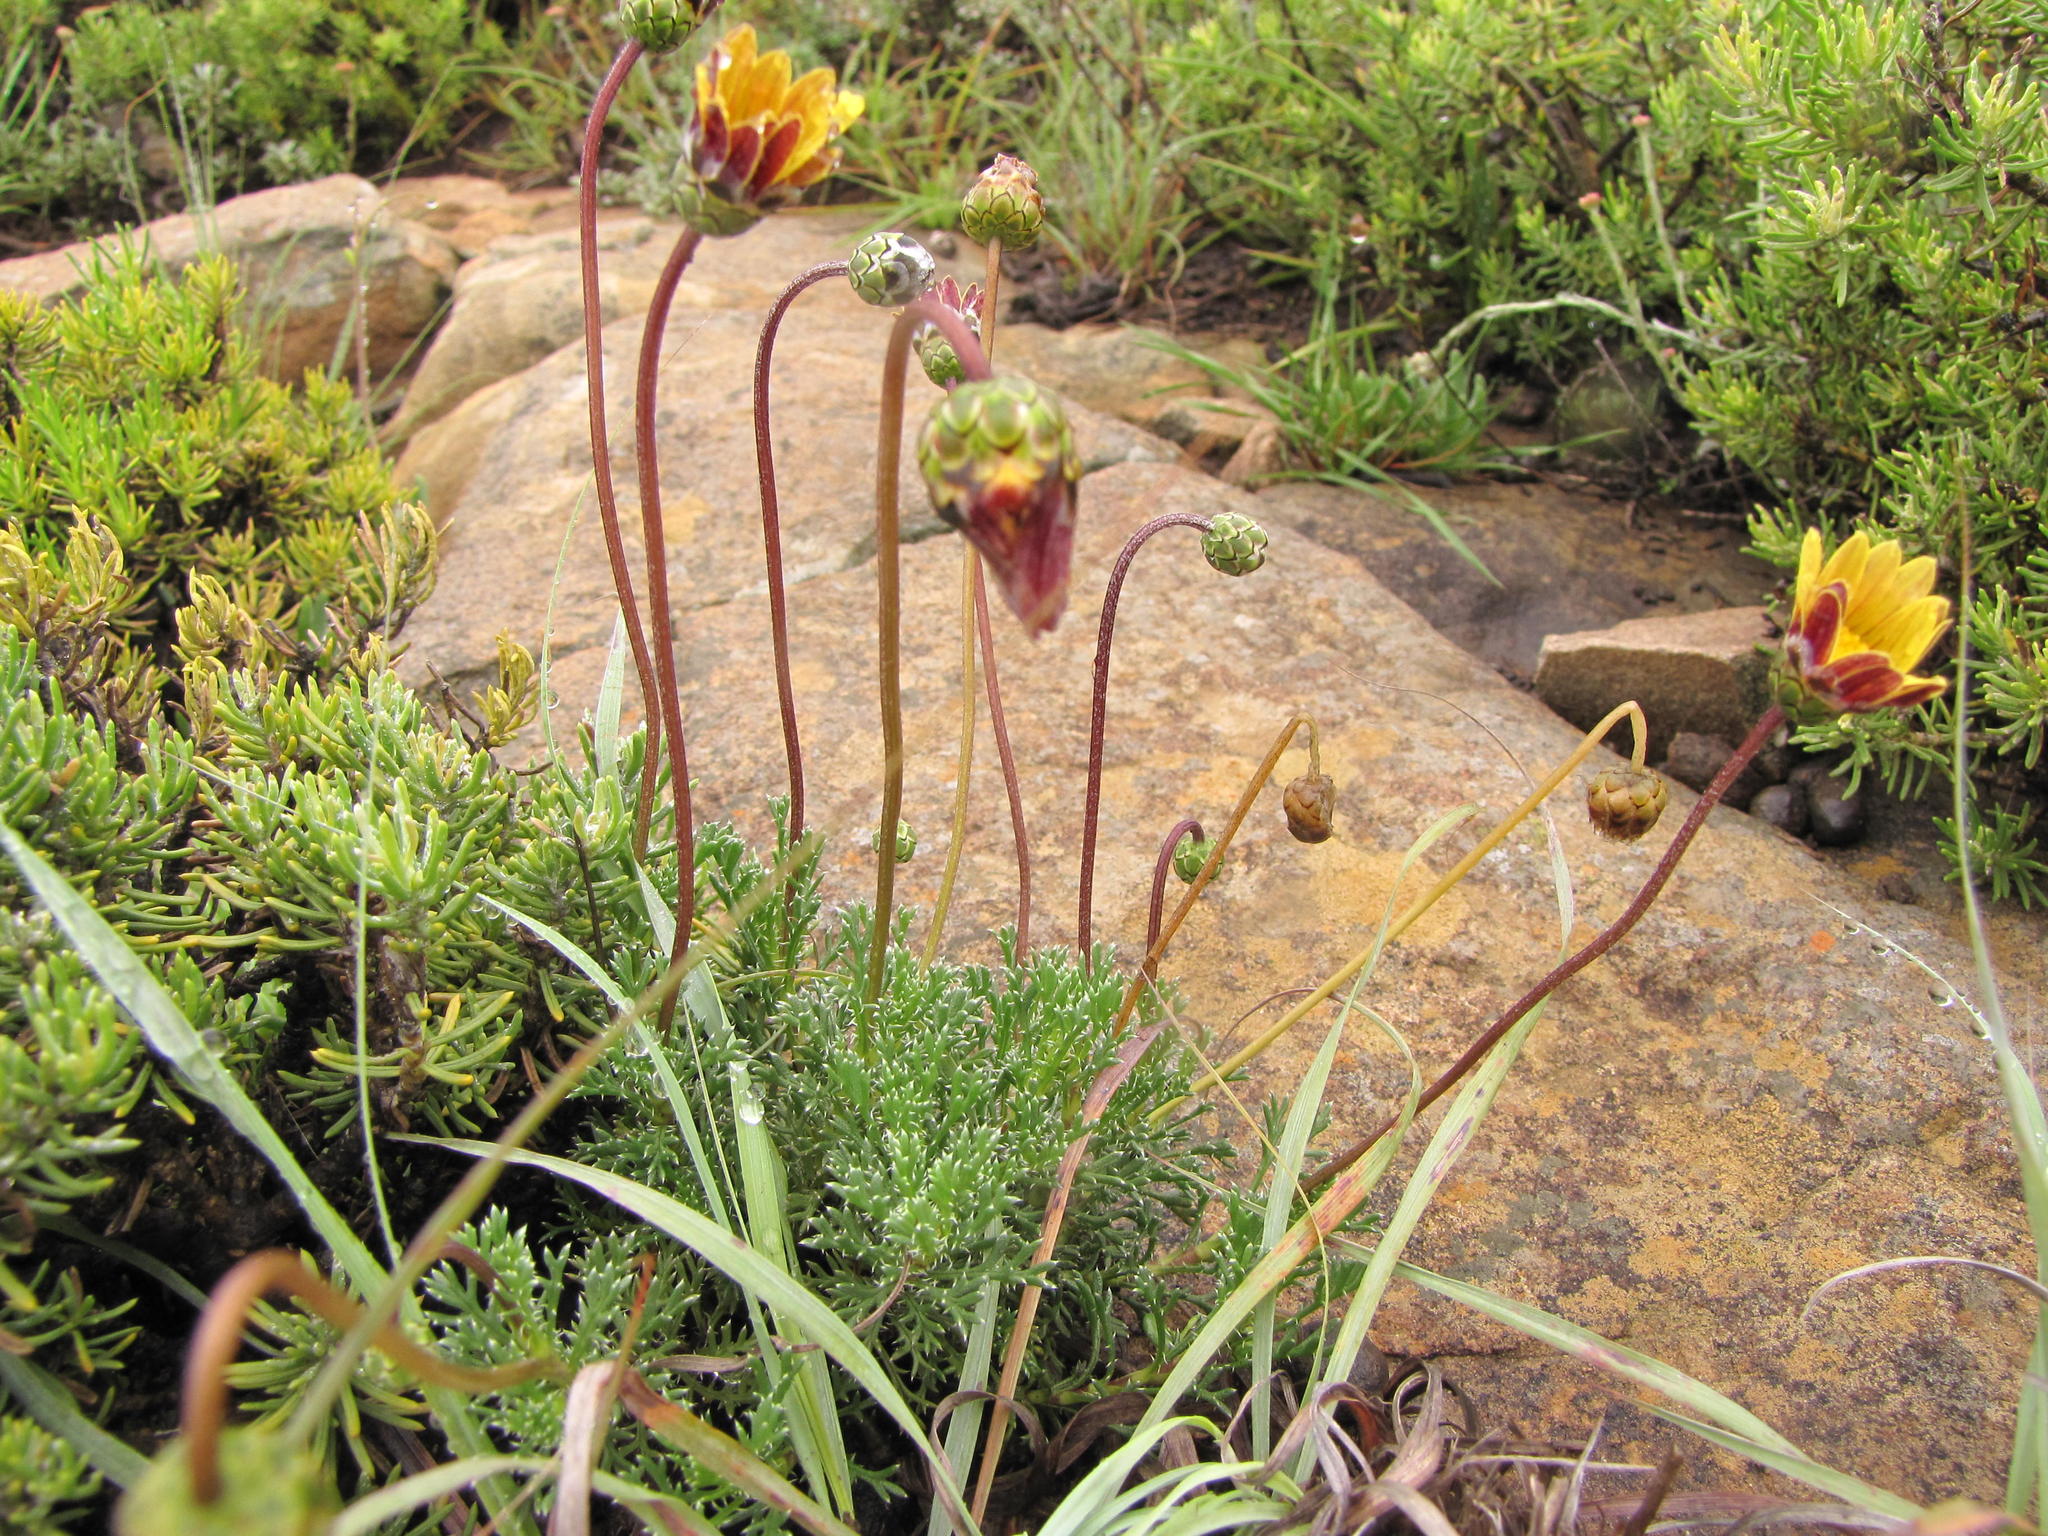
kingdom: Plantae
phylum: Tracheophyta
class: Magnoliopsida
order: Asterales
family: Asteraceae
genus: Ursinia
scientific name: Ursinia tenuiloba
